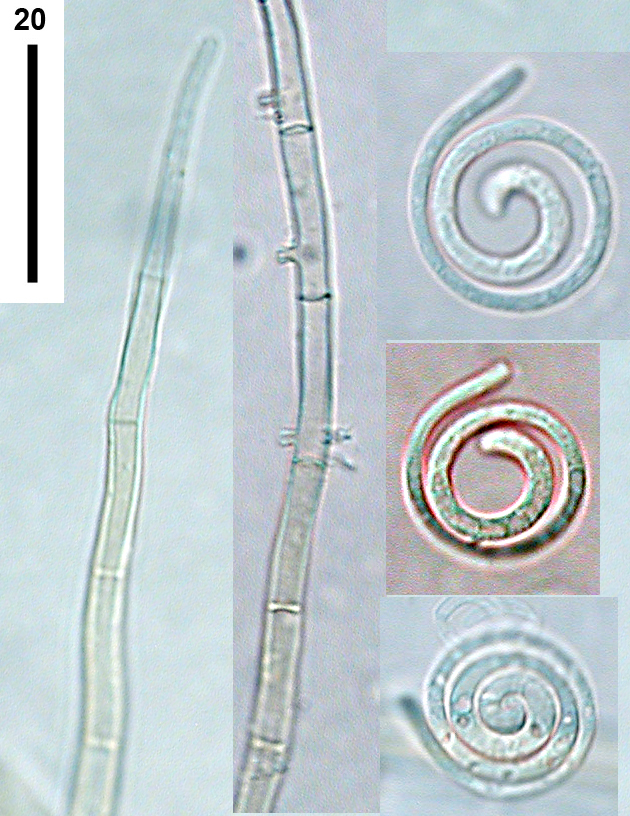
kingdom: Fungi
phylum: Ascomycota
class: Dothideomycetes
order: Tubeufiales
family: Tubeufiaceae
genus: Helicomyces
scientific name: Helicomyces tenuis
